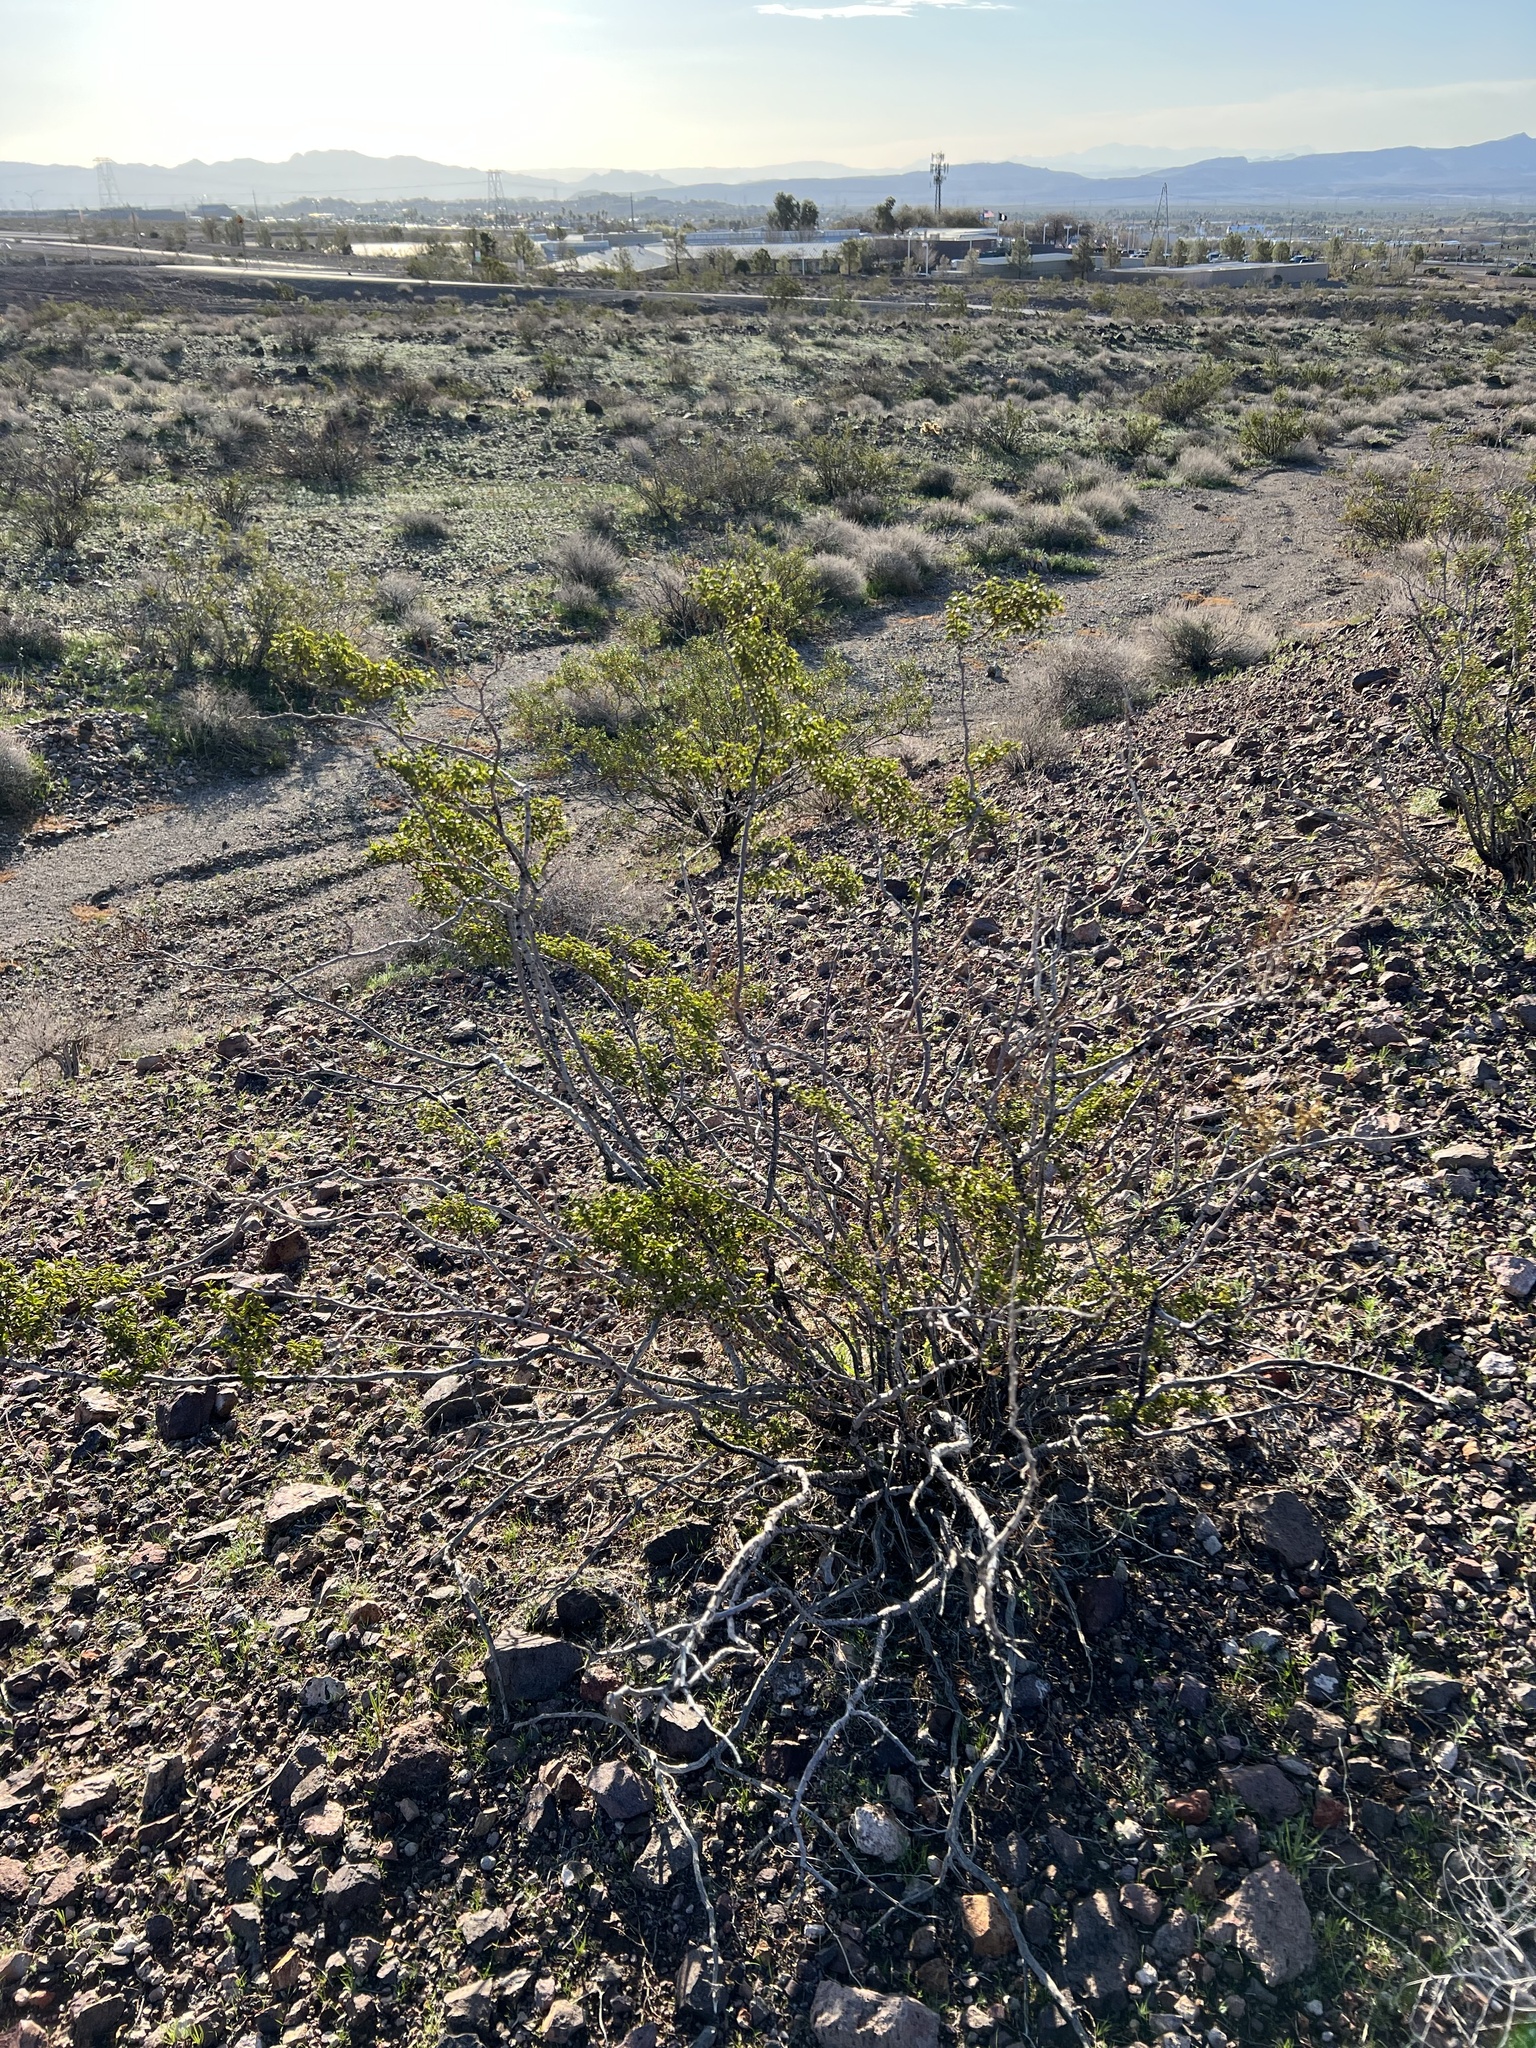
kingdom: Plantae
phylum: Tracheophyta
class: Magnoliopsida
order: Zygophyllales
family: Zygophyllaceae
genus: Larrea
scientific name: Larrea tridentata
